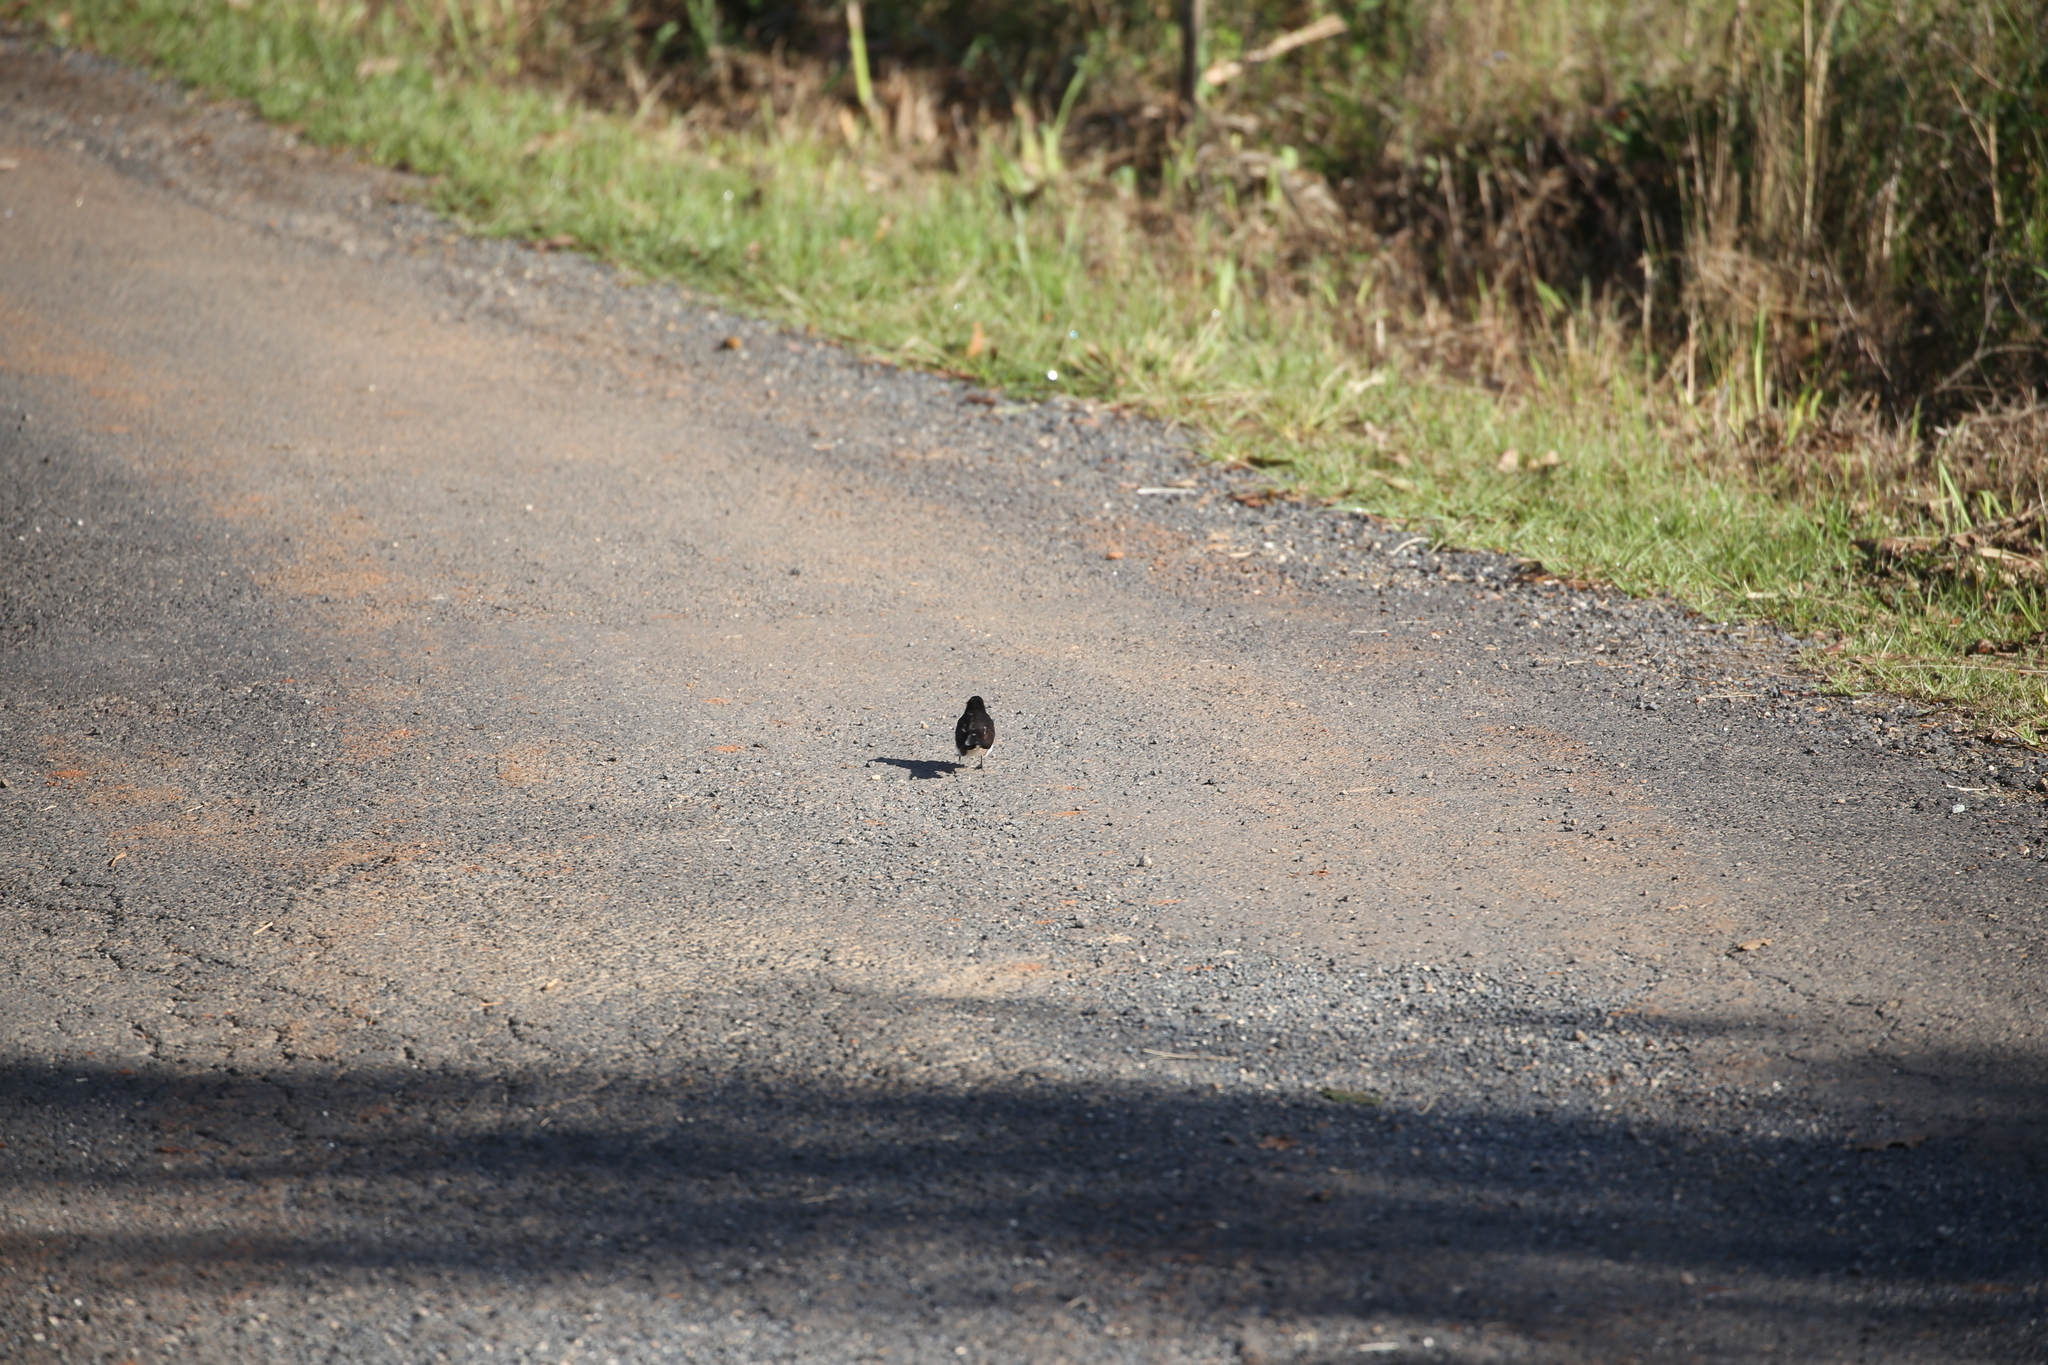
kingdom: Animalia
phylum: Chordata
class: Aves
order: Passeriformes
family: Rhipiduridae
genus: Rhipidura
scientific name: Rhipidura leucophrys
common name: Willie wagtail
